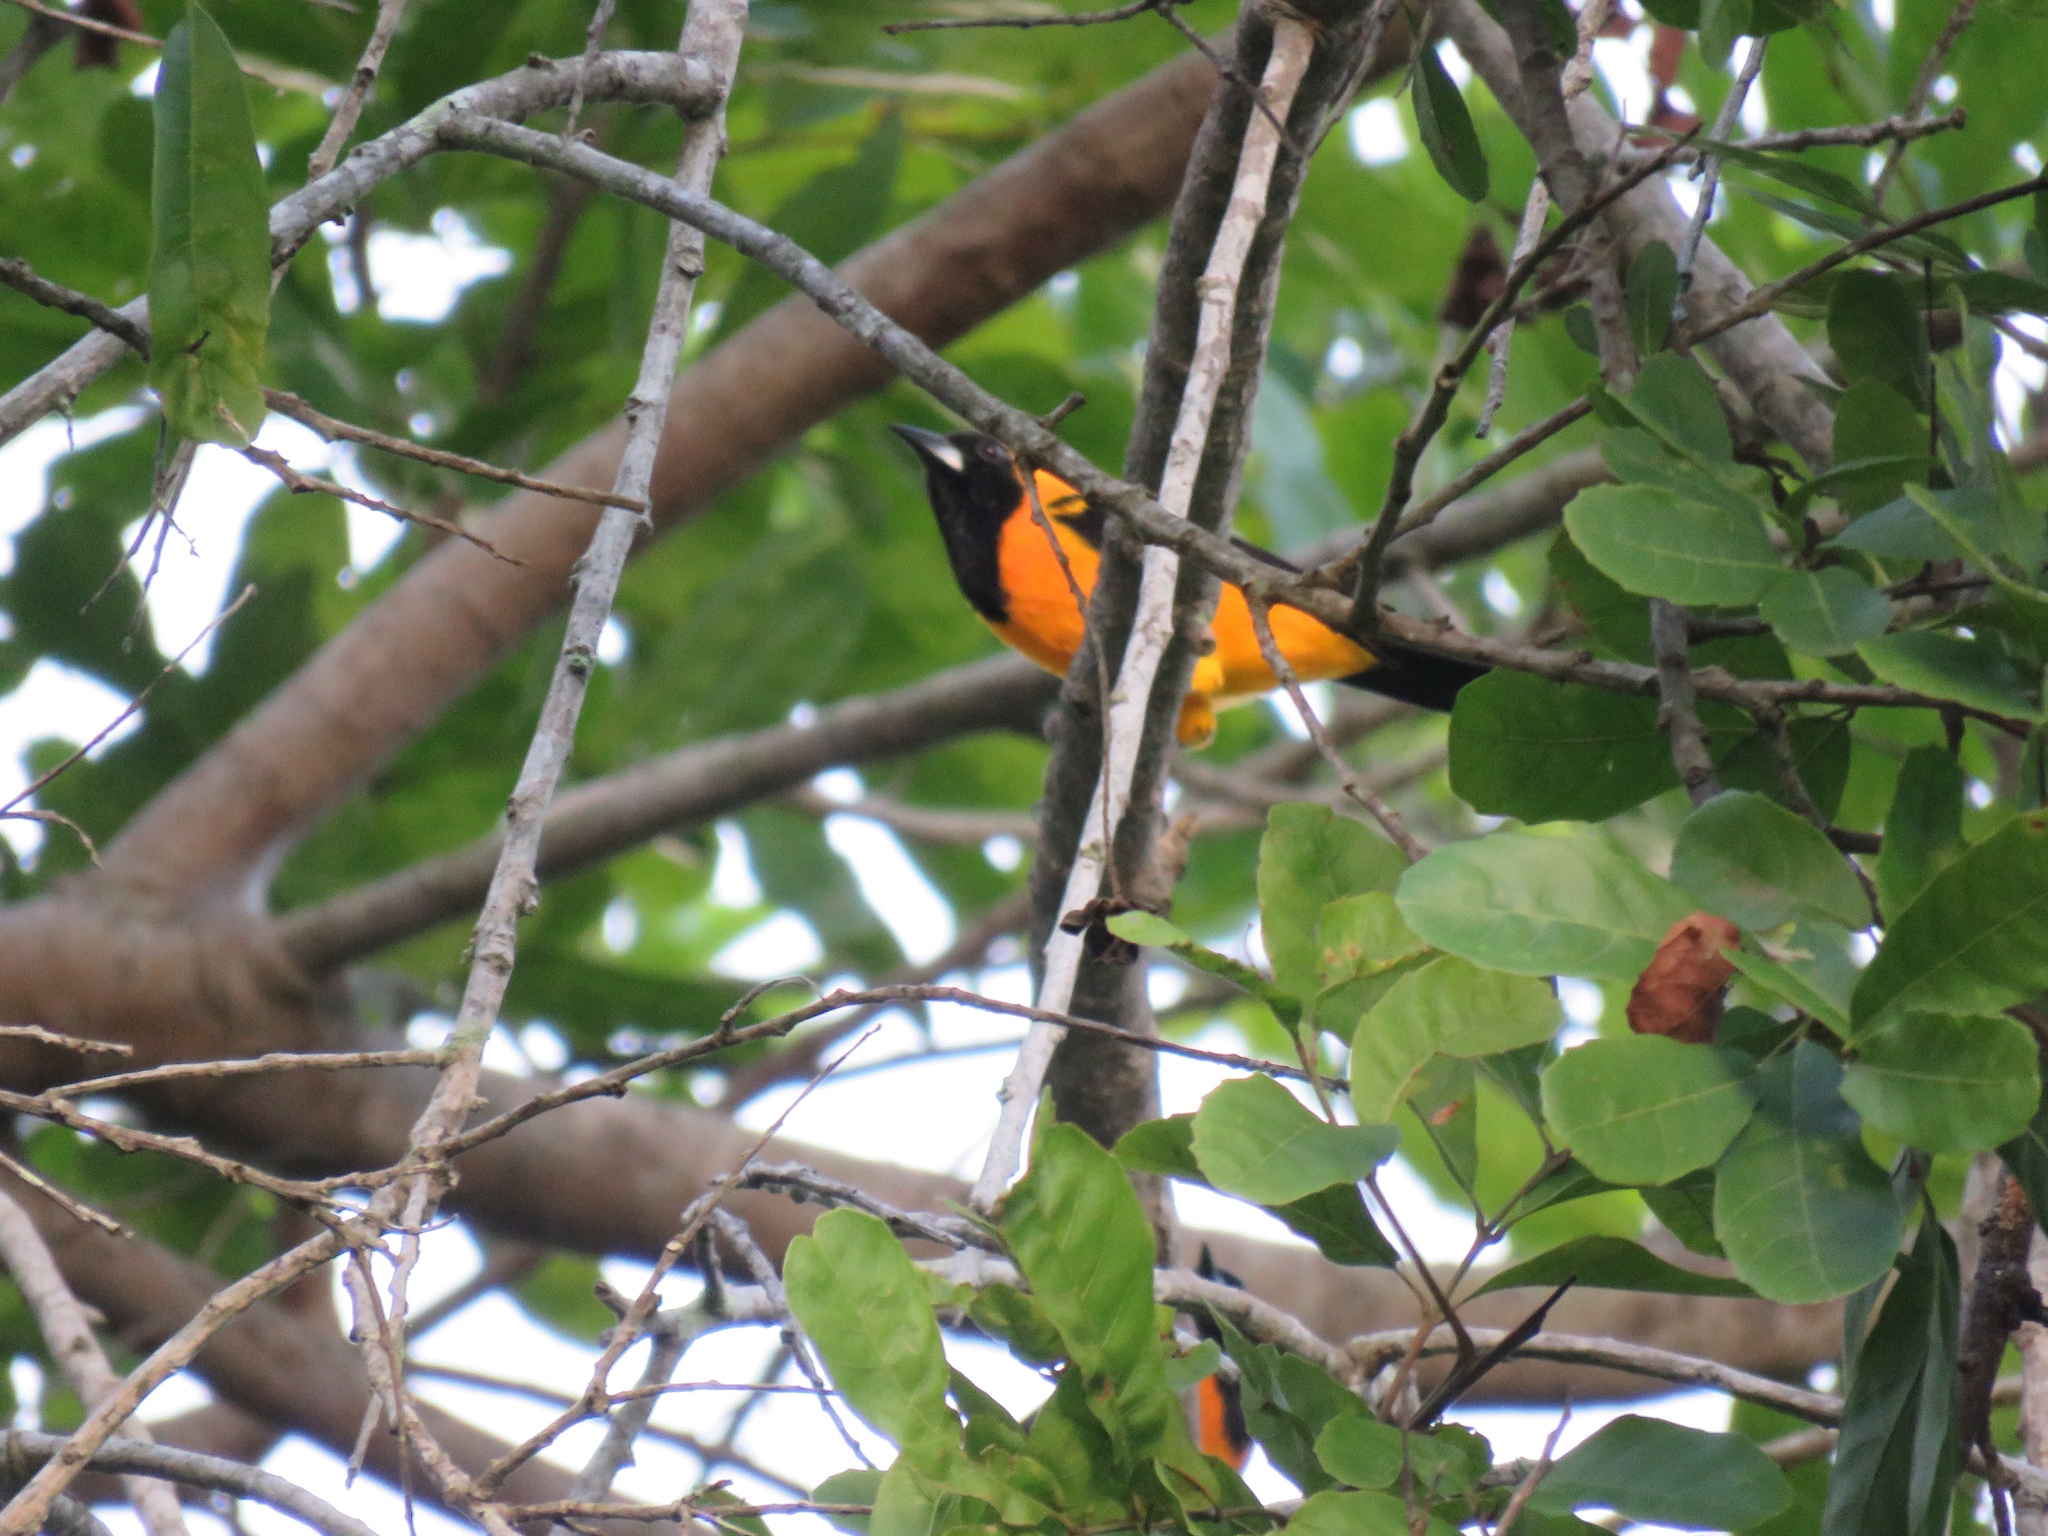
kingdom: Animalia
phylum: Chordata
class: Aves
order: Passeriformes
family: Icteridae
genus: Icterus
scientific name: Icterus chrysater
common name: Yellow-backed oriole
